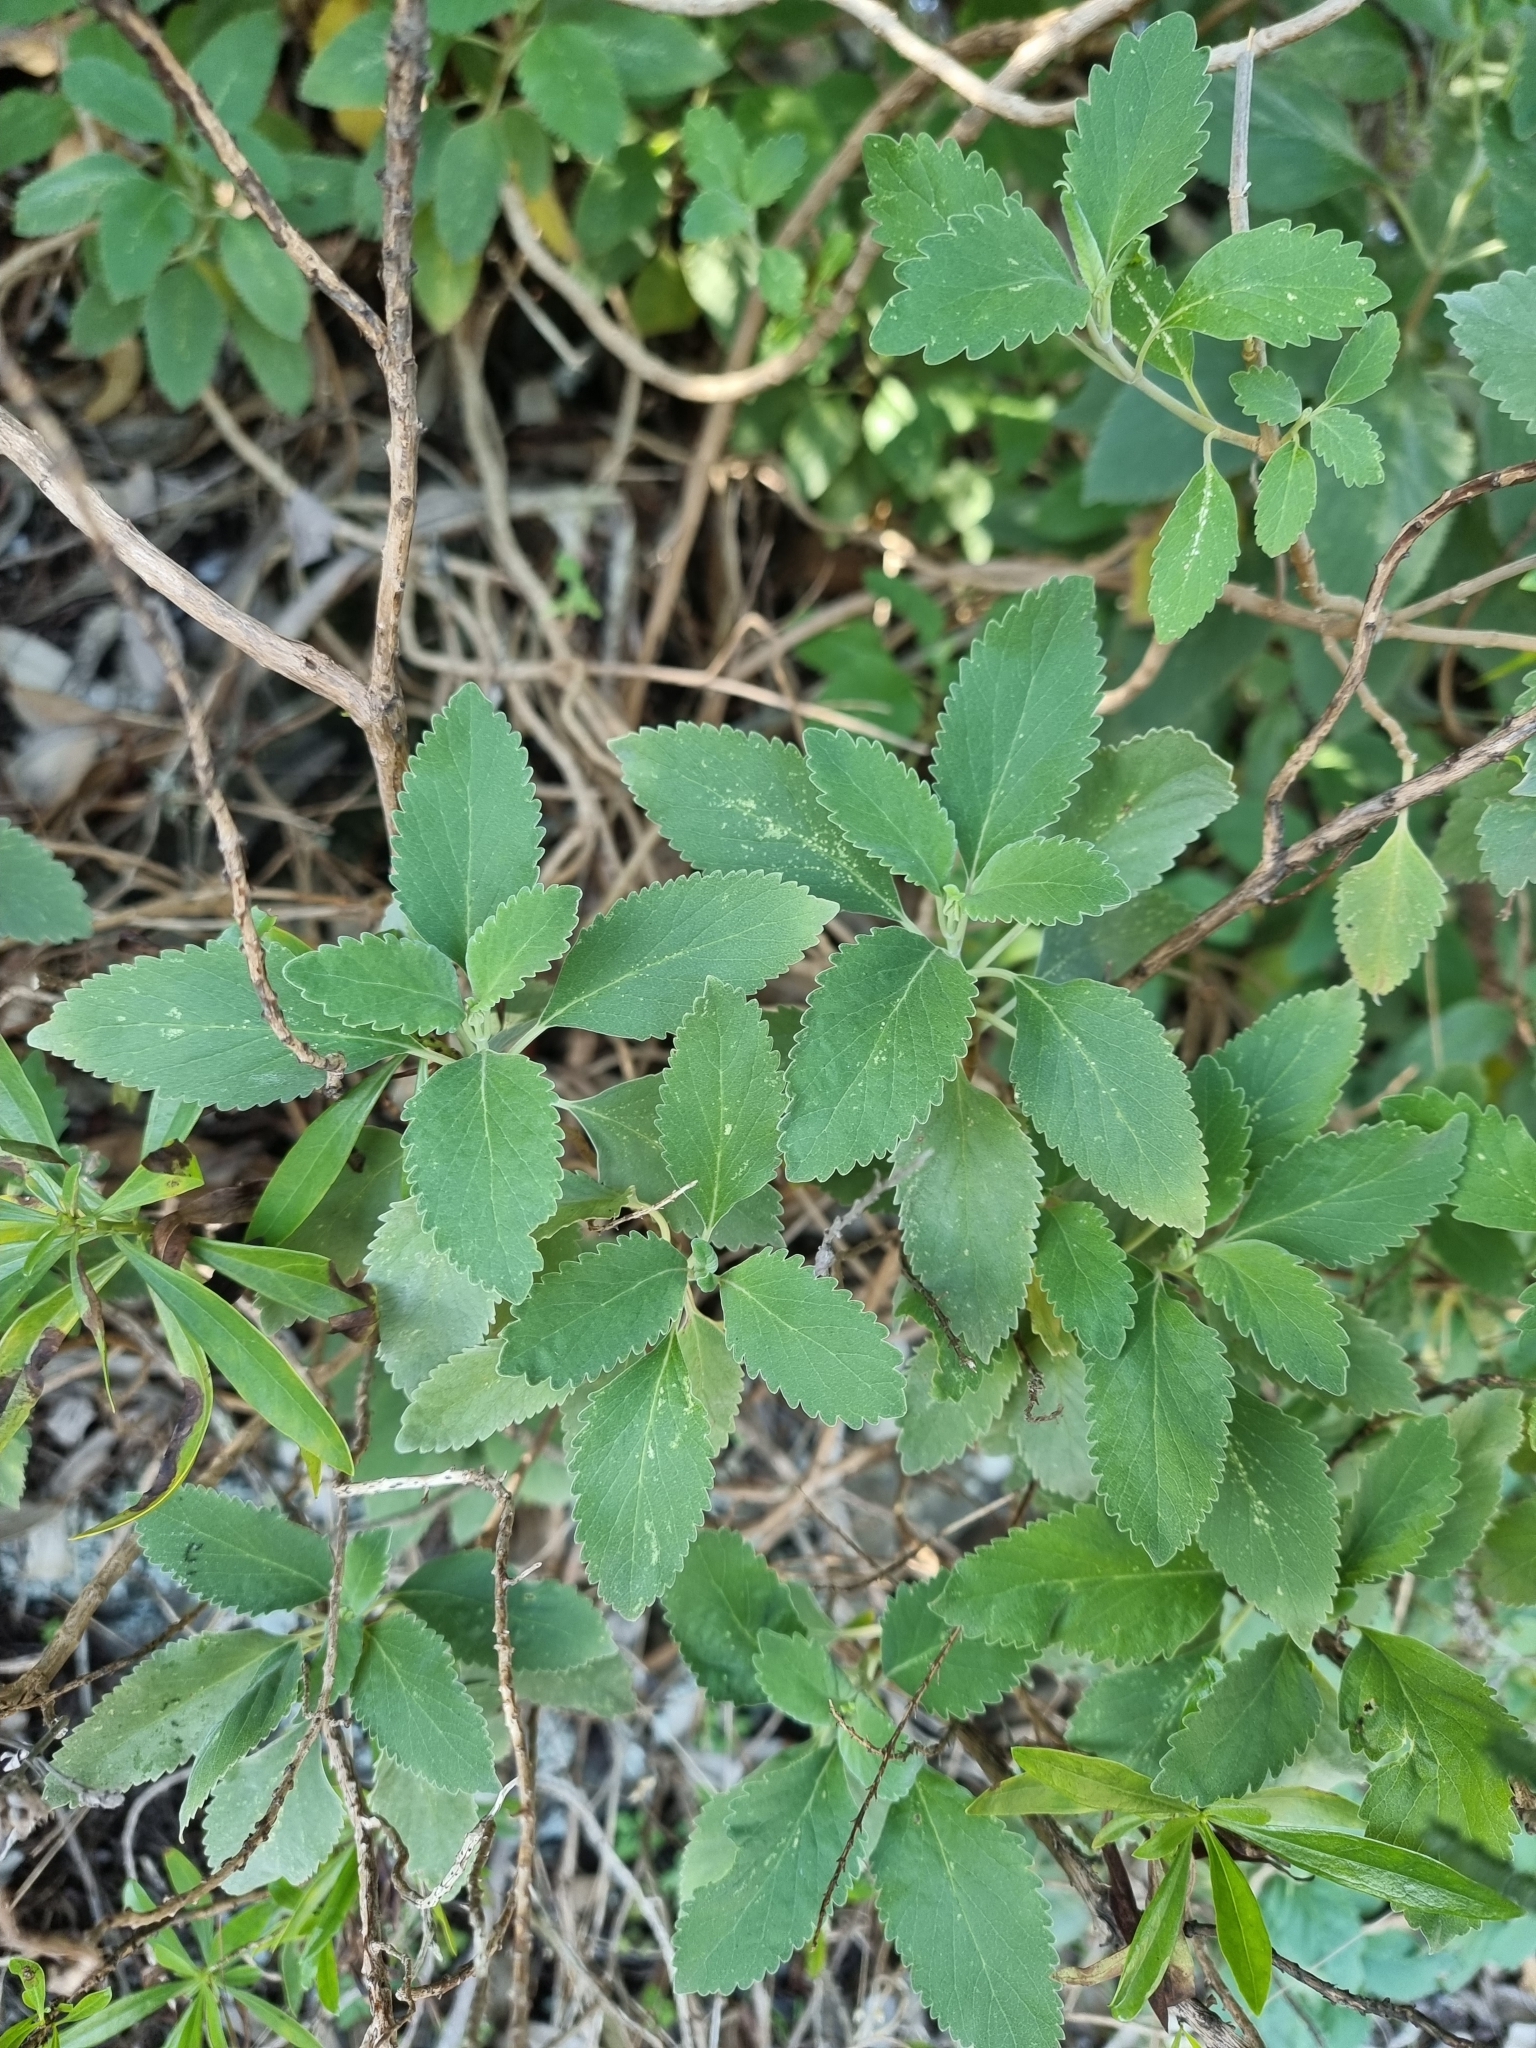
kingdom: Plantae
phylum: Tracheophyta
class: Magnoliopsida
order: Lamiales
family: Lamiaceae
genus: Teucrium
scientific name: Teucrium betonicum
